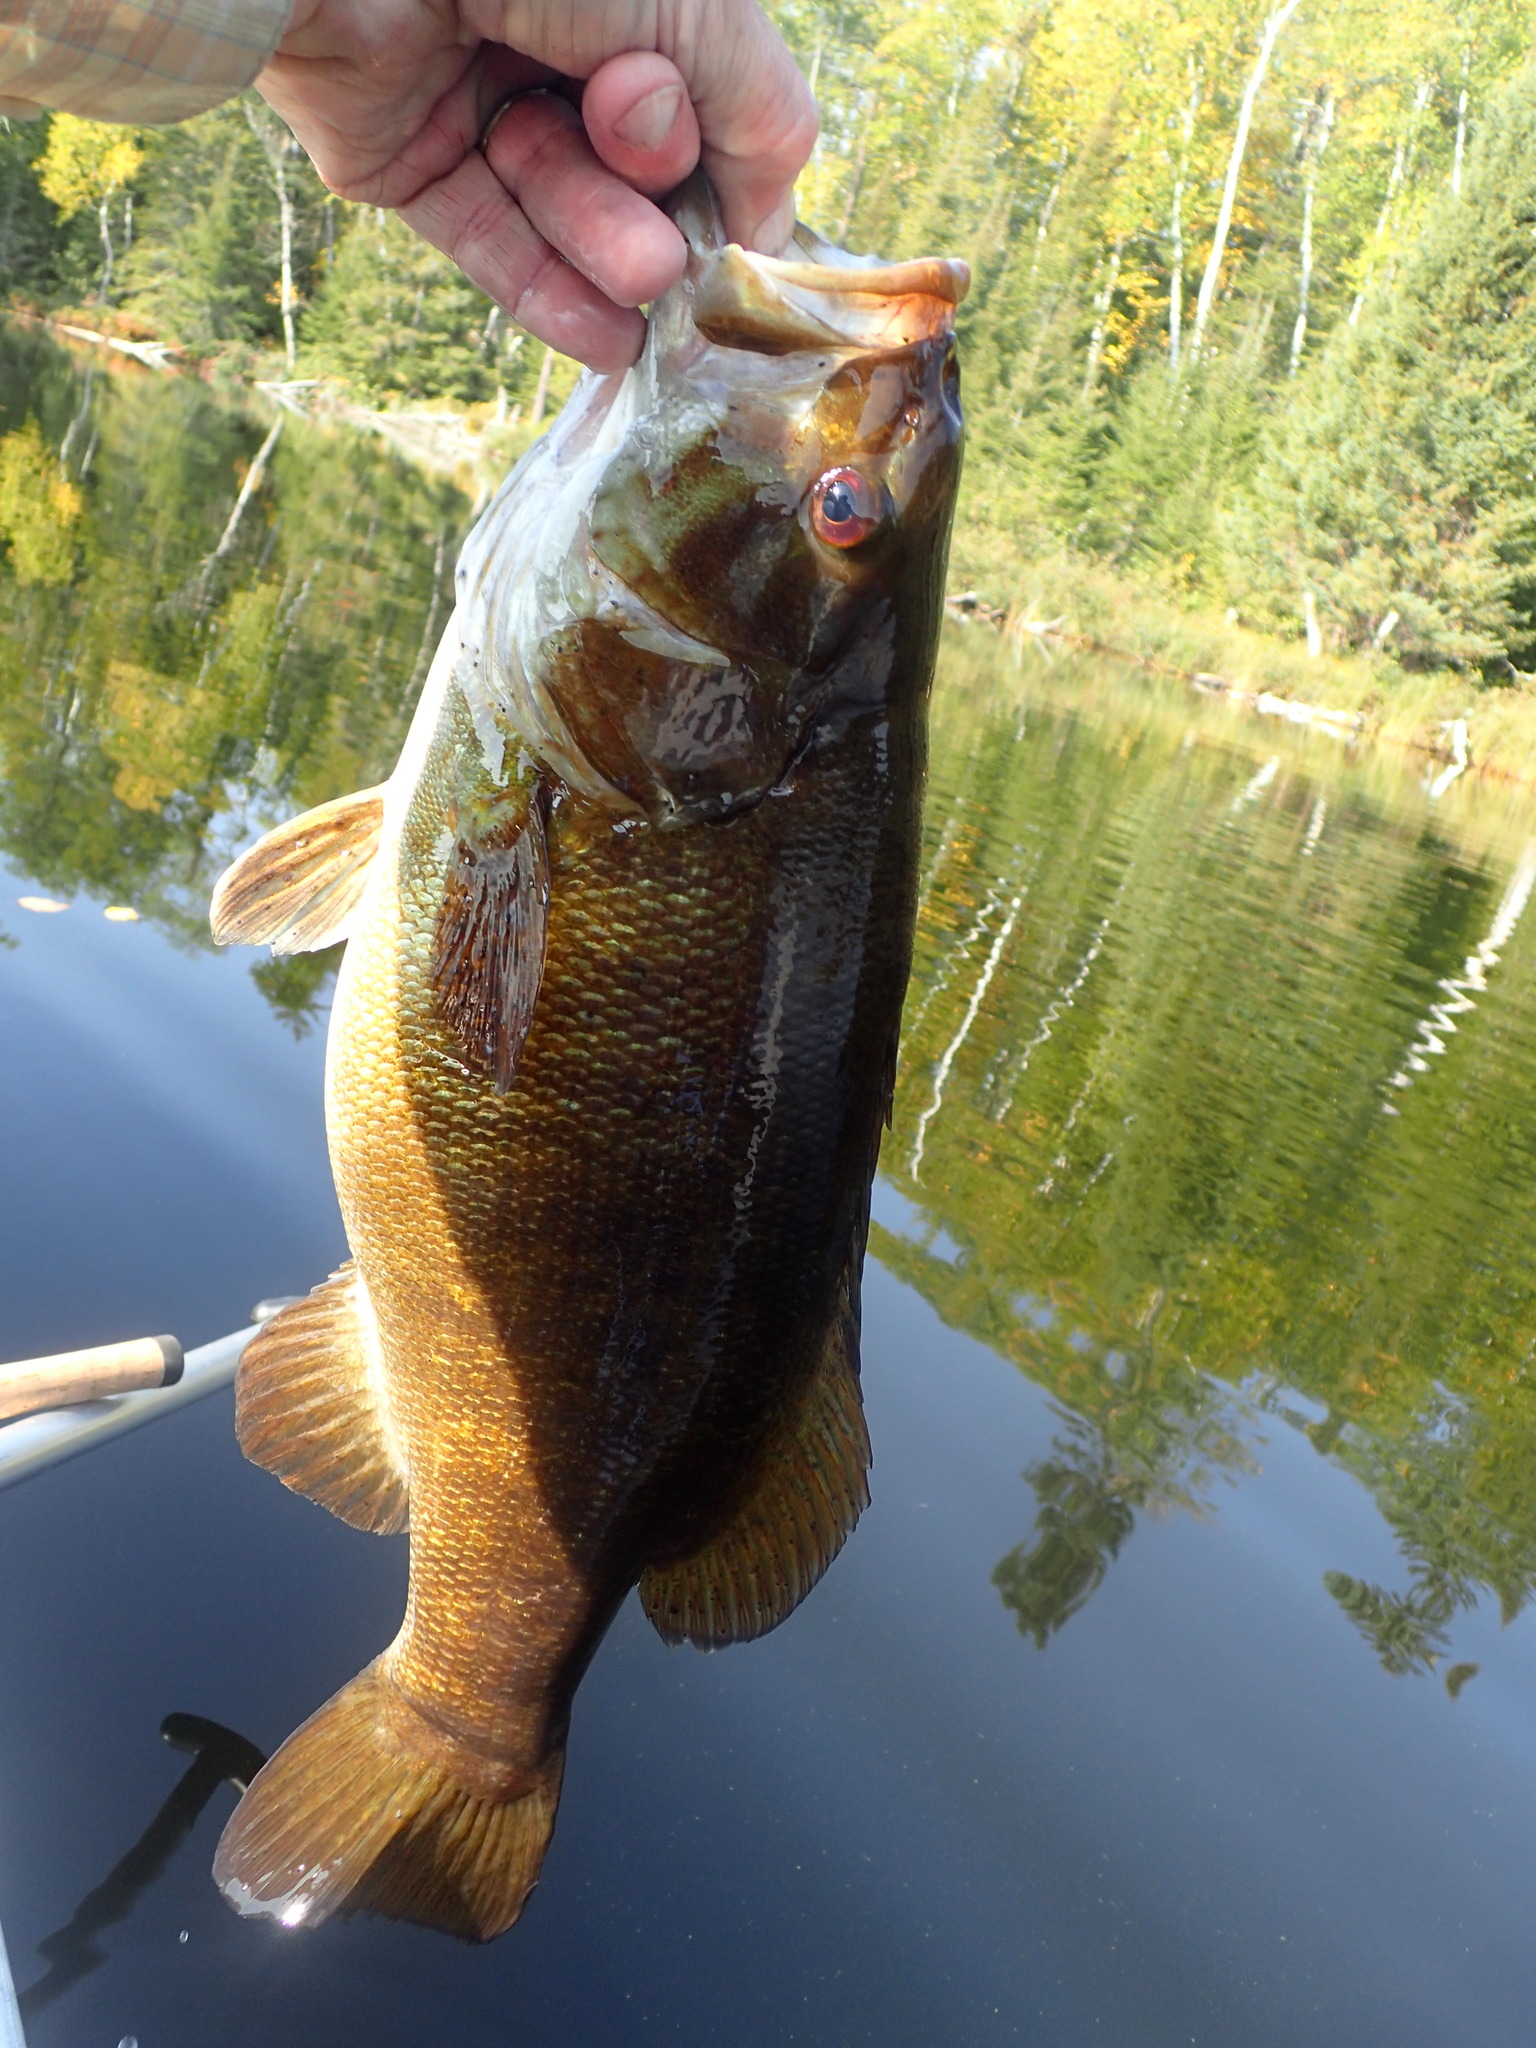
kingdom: Animalia
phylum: Chordata
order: Perciformes
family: Centrarchidae
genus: Micropterus
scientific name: Micropterus dolomieu
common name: Smallmouth bass
